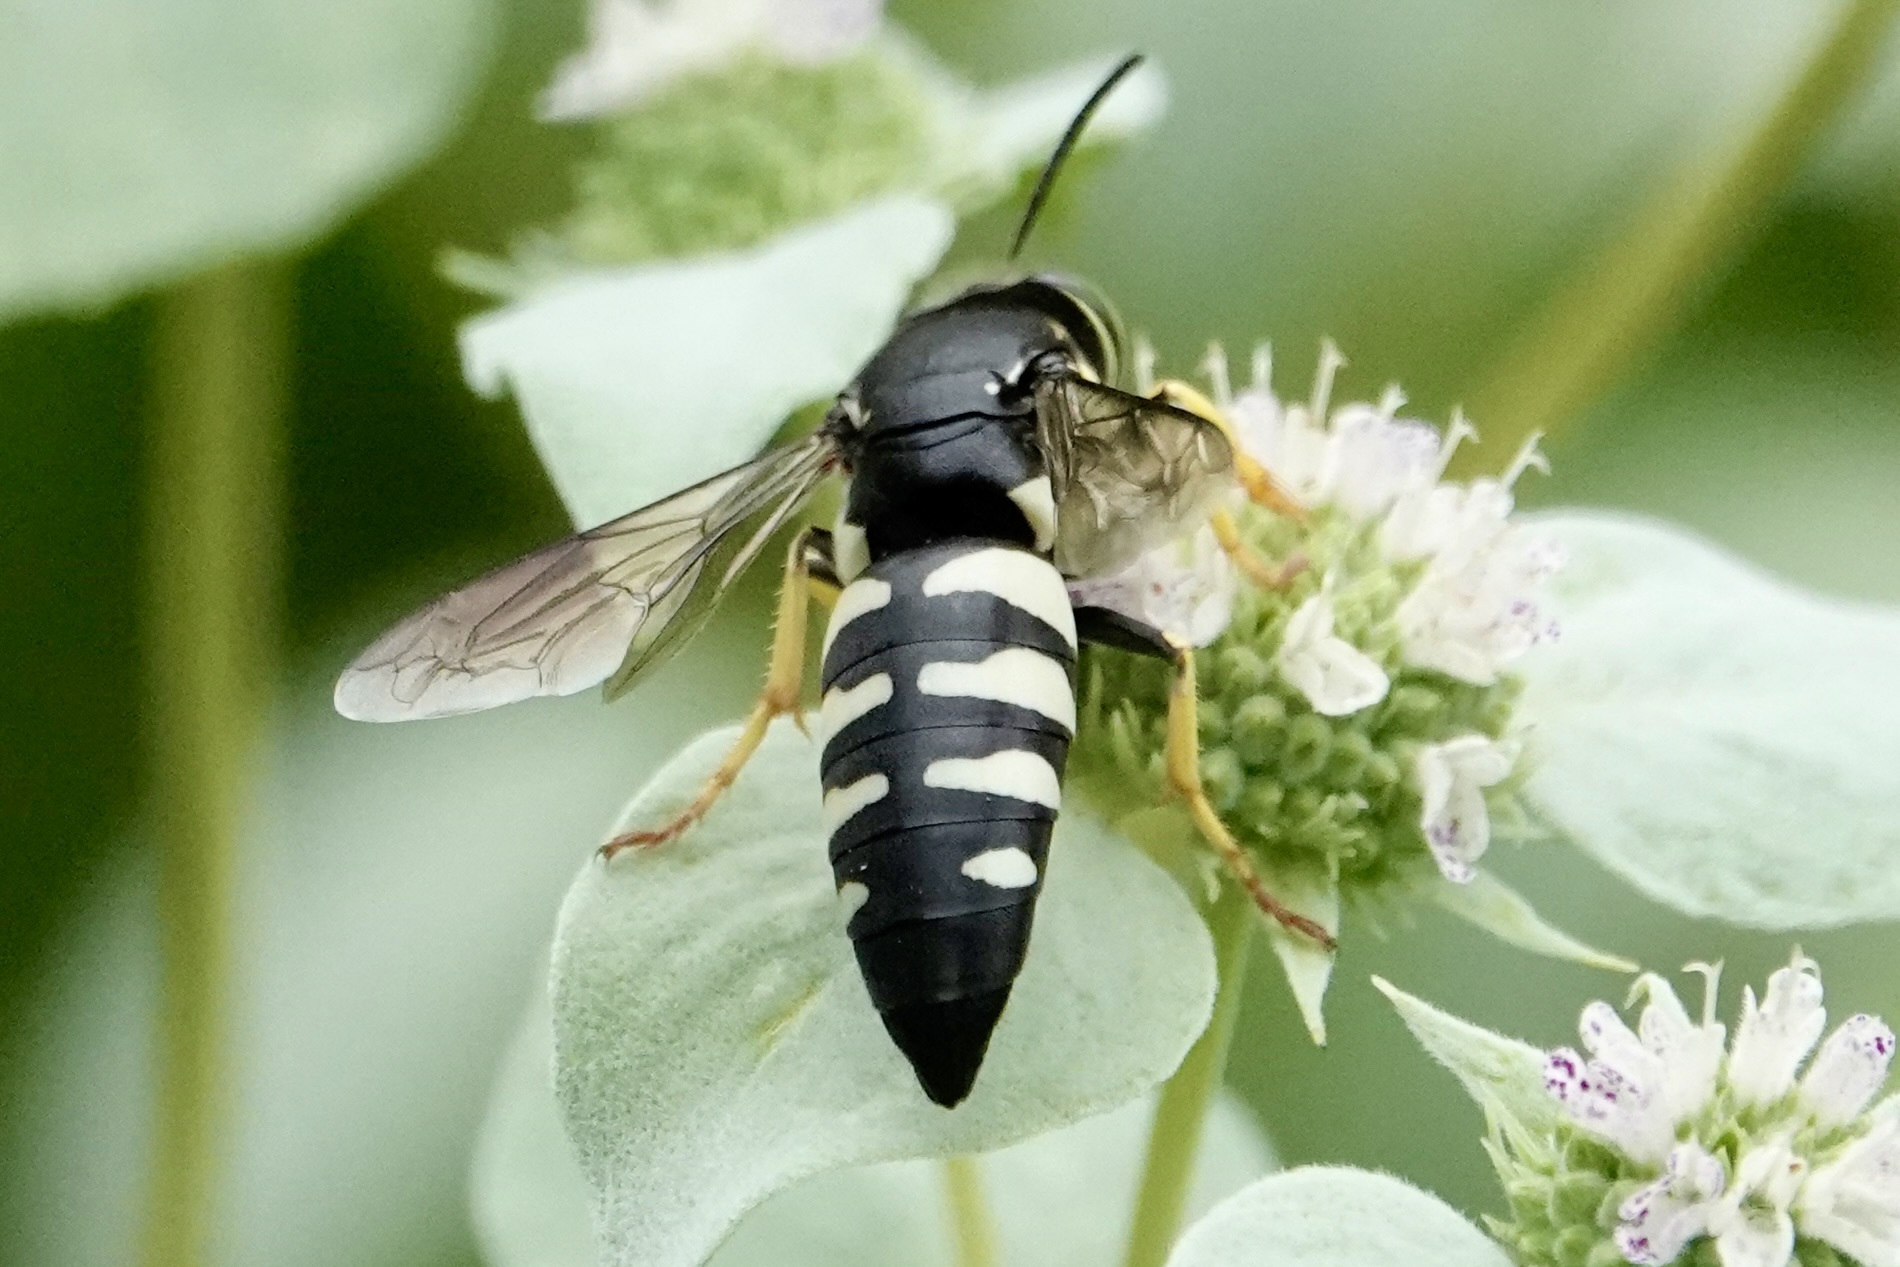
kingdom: Animalia
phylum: Arthropoda
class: Insecta
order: Hymenoptera
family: Crabronidae
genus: Bicyrtes
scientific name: Bicyrtes quadrifasciatus
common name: Four-banded stink bug hunter wasp
